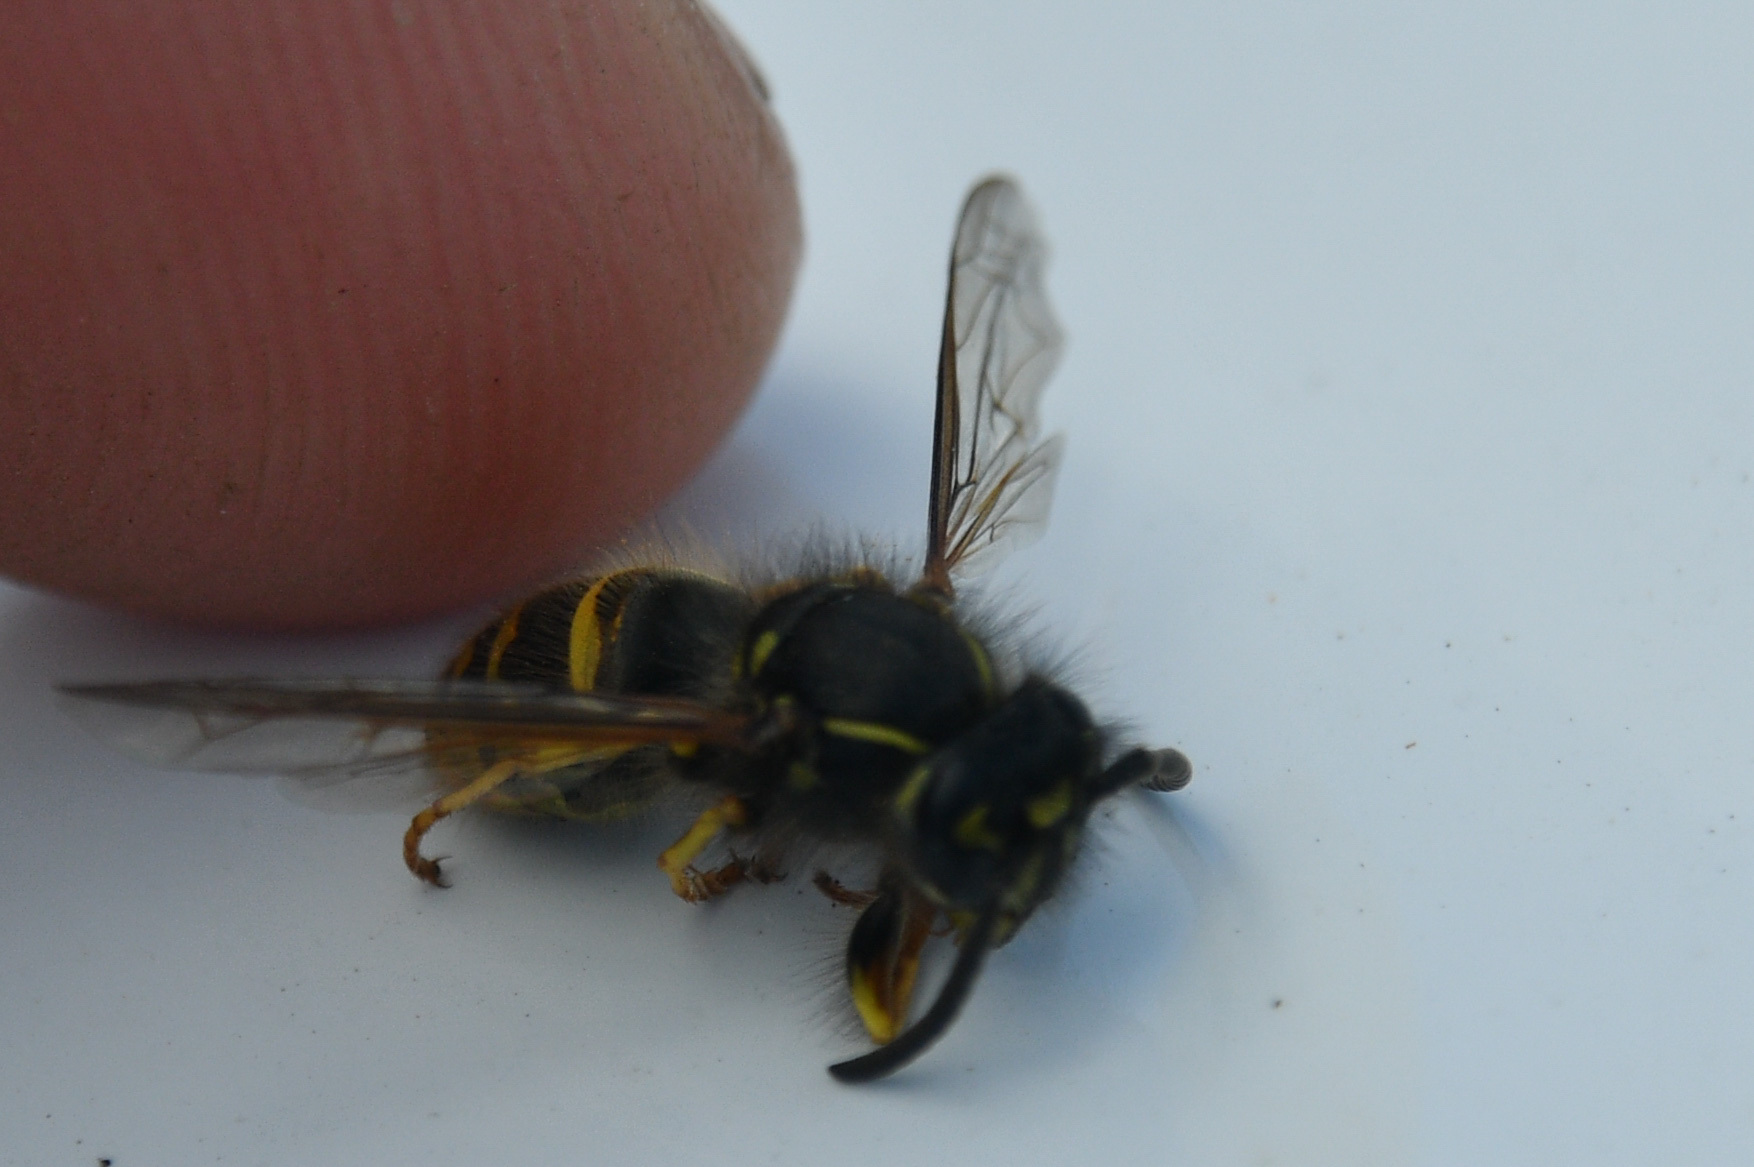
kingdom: Animalia
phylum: Arthropoda
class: Insecta
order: Hymenoptera
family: Vespidae
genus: Vespula
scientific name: Vespula alascensis
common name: Alaska yellowjacket
